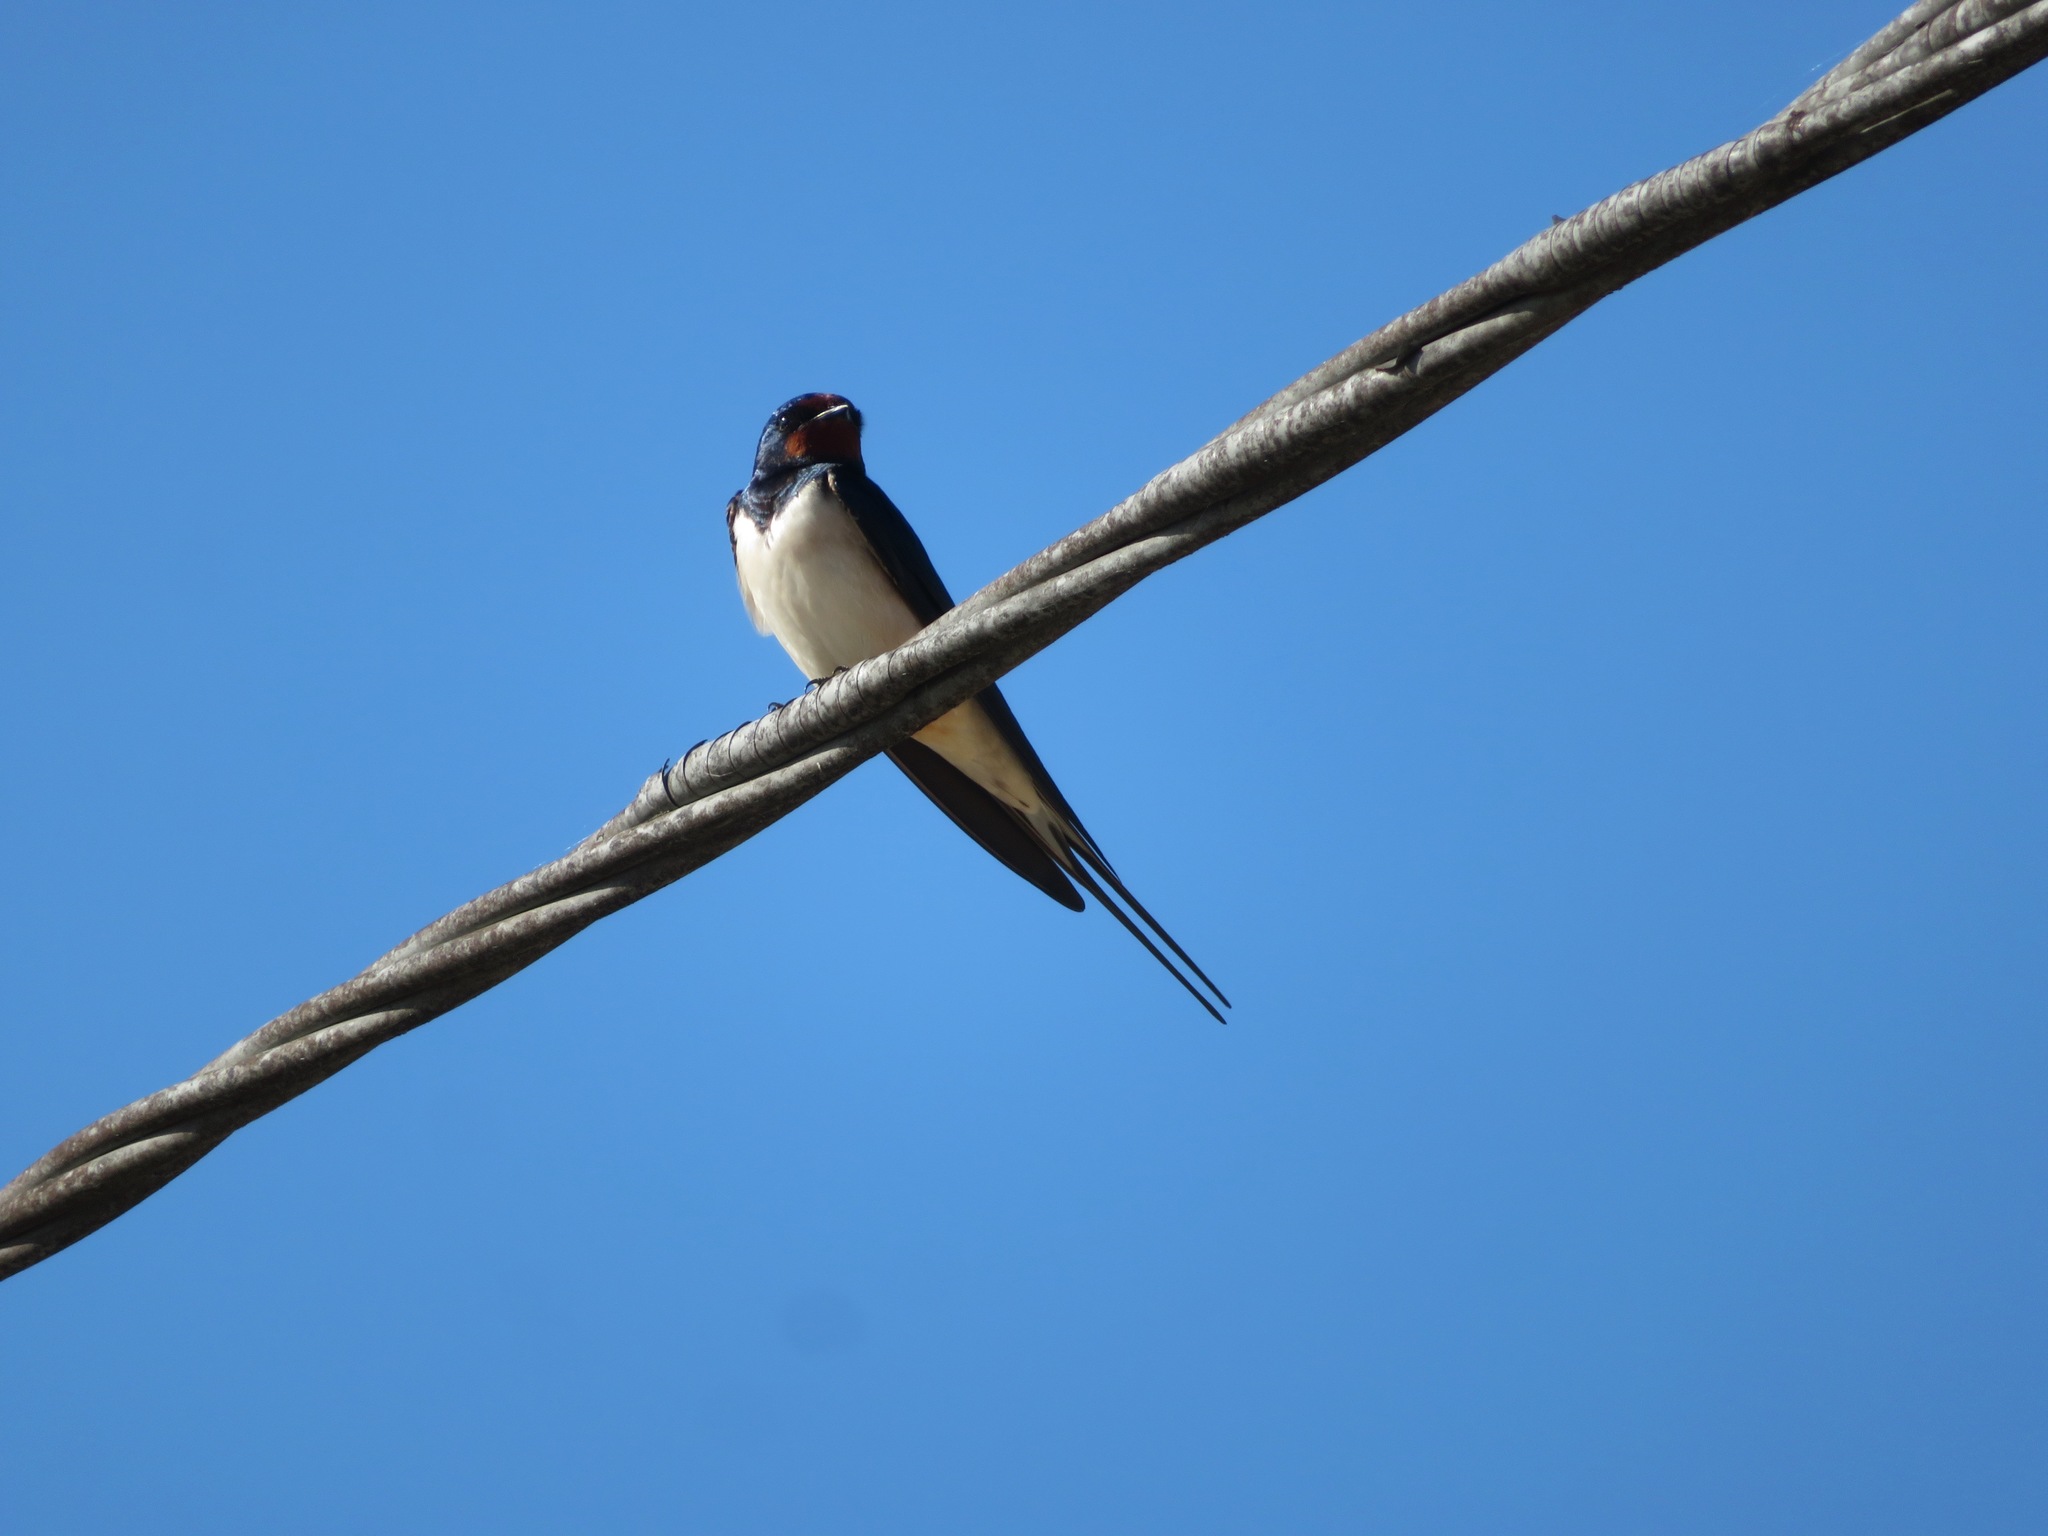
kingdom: Animalia
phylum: Chordata
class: Aves
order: Passeriformes
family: Hirundinidae
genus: Hirundo
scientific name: Hirundo rustica
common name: Barn swallow
